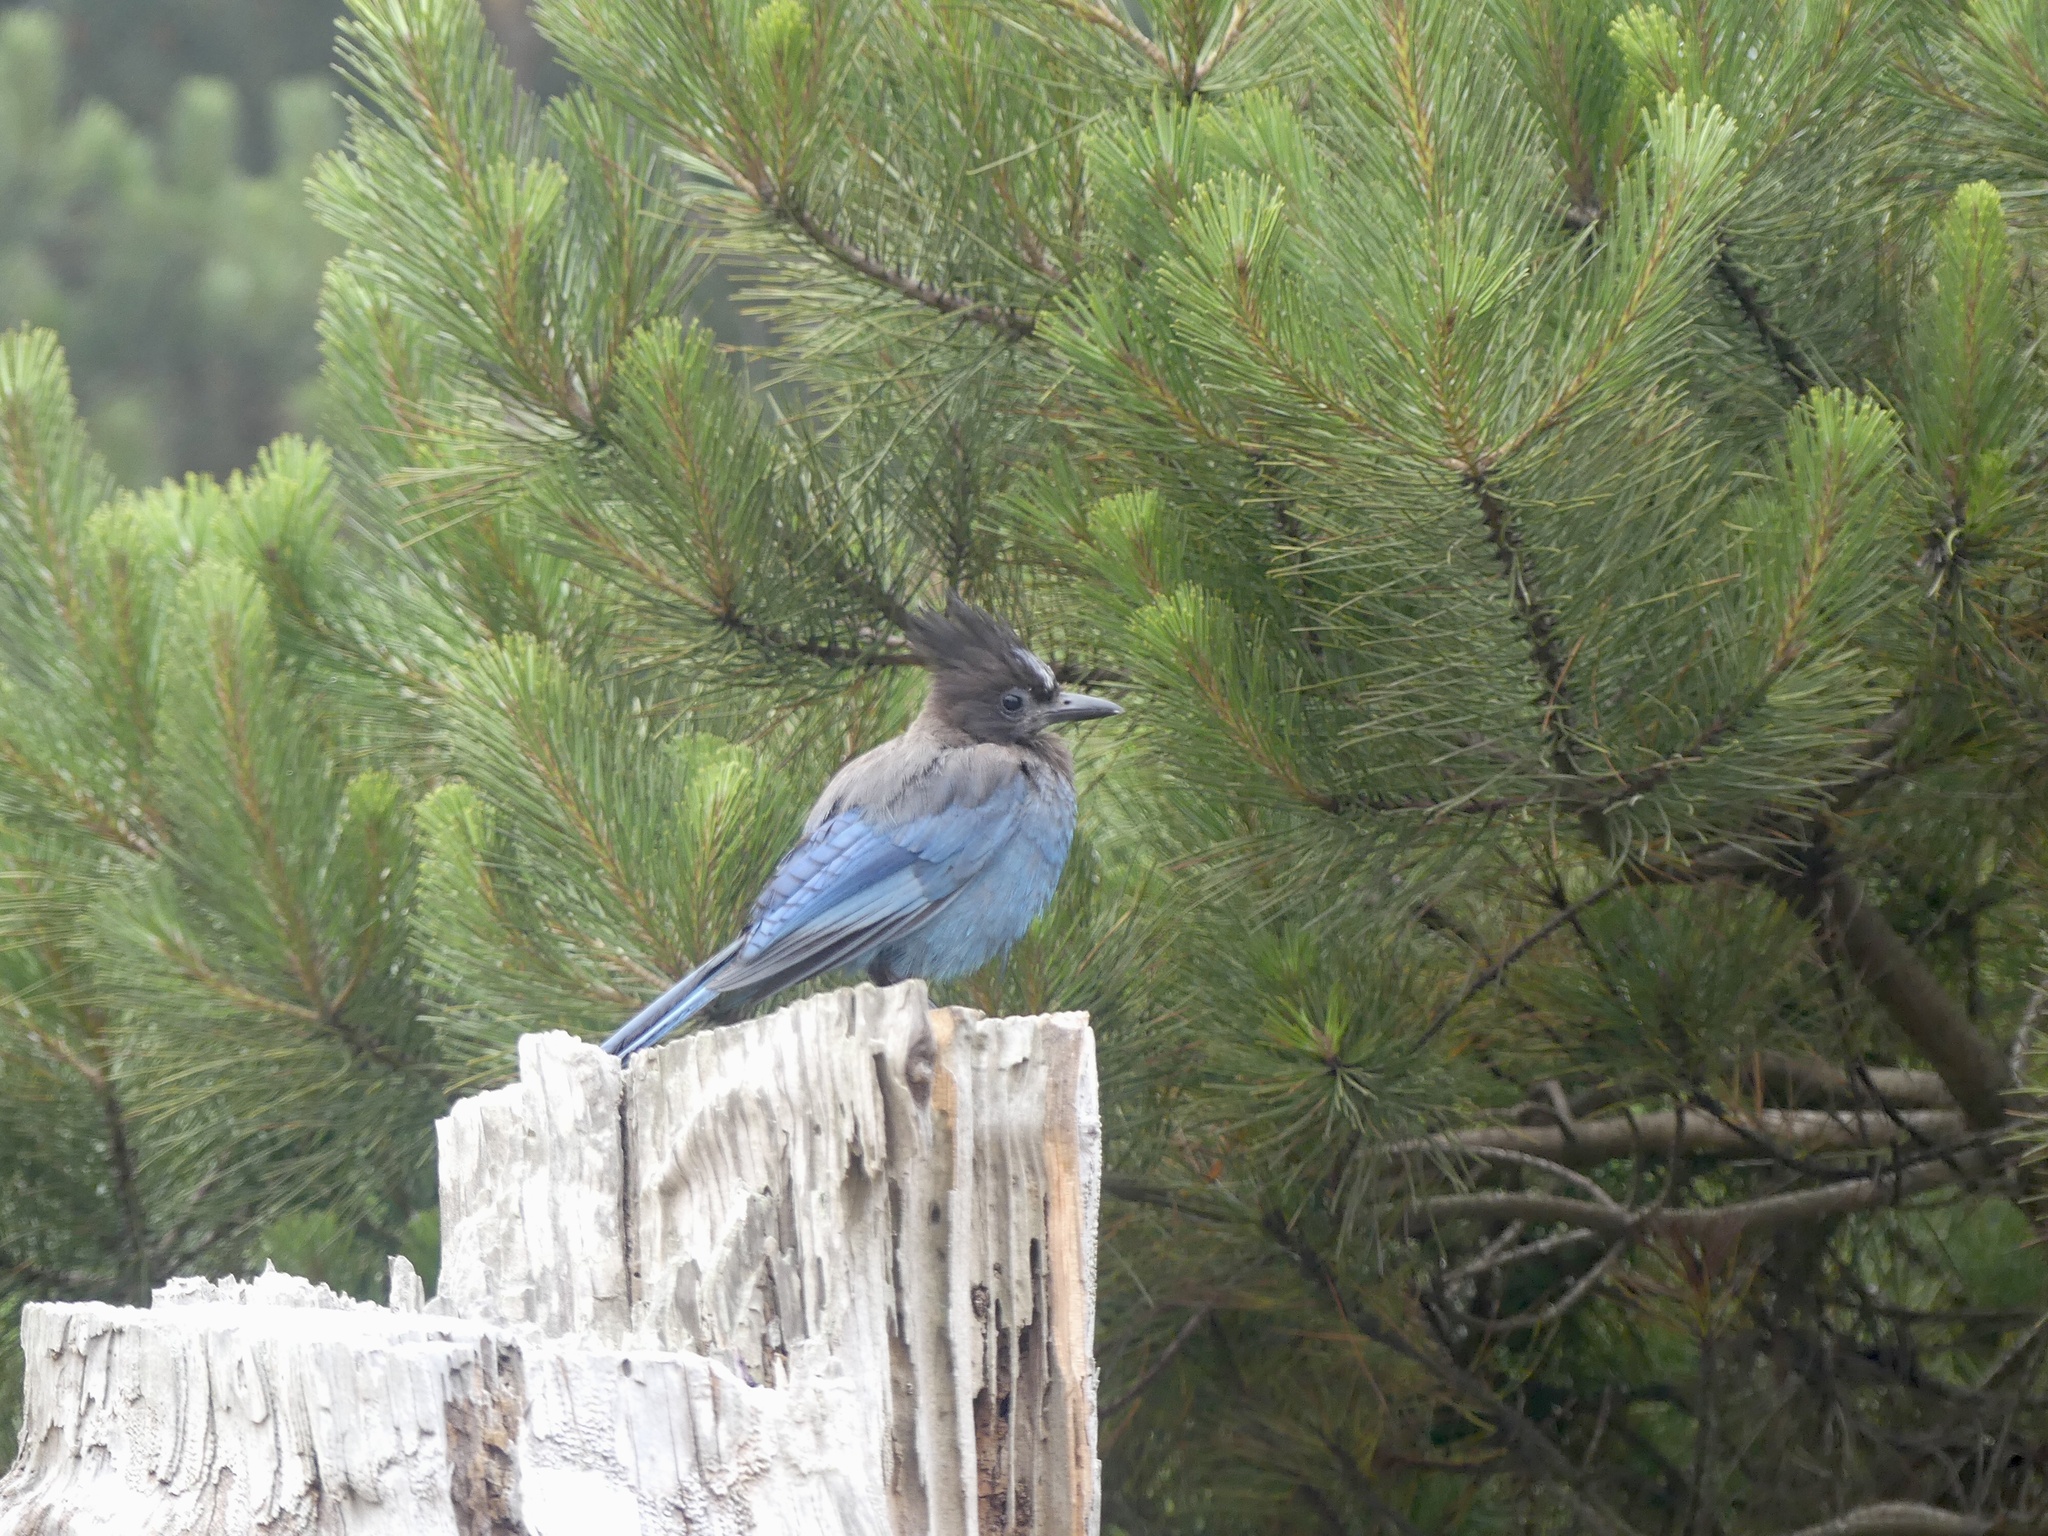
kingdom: Animalia
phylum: Chordata
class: Aves
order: Passeriformes
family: Corvidae
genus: Cyanocitta
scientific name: Cyanocitta stelleri
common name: Steller's jay
